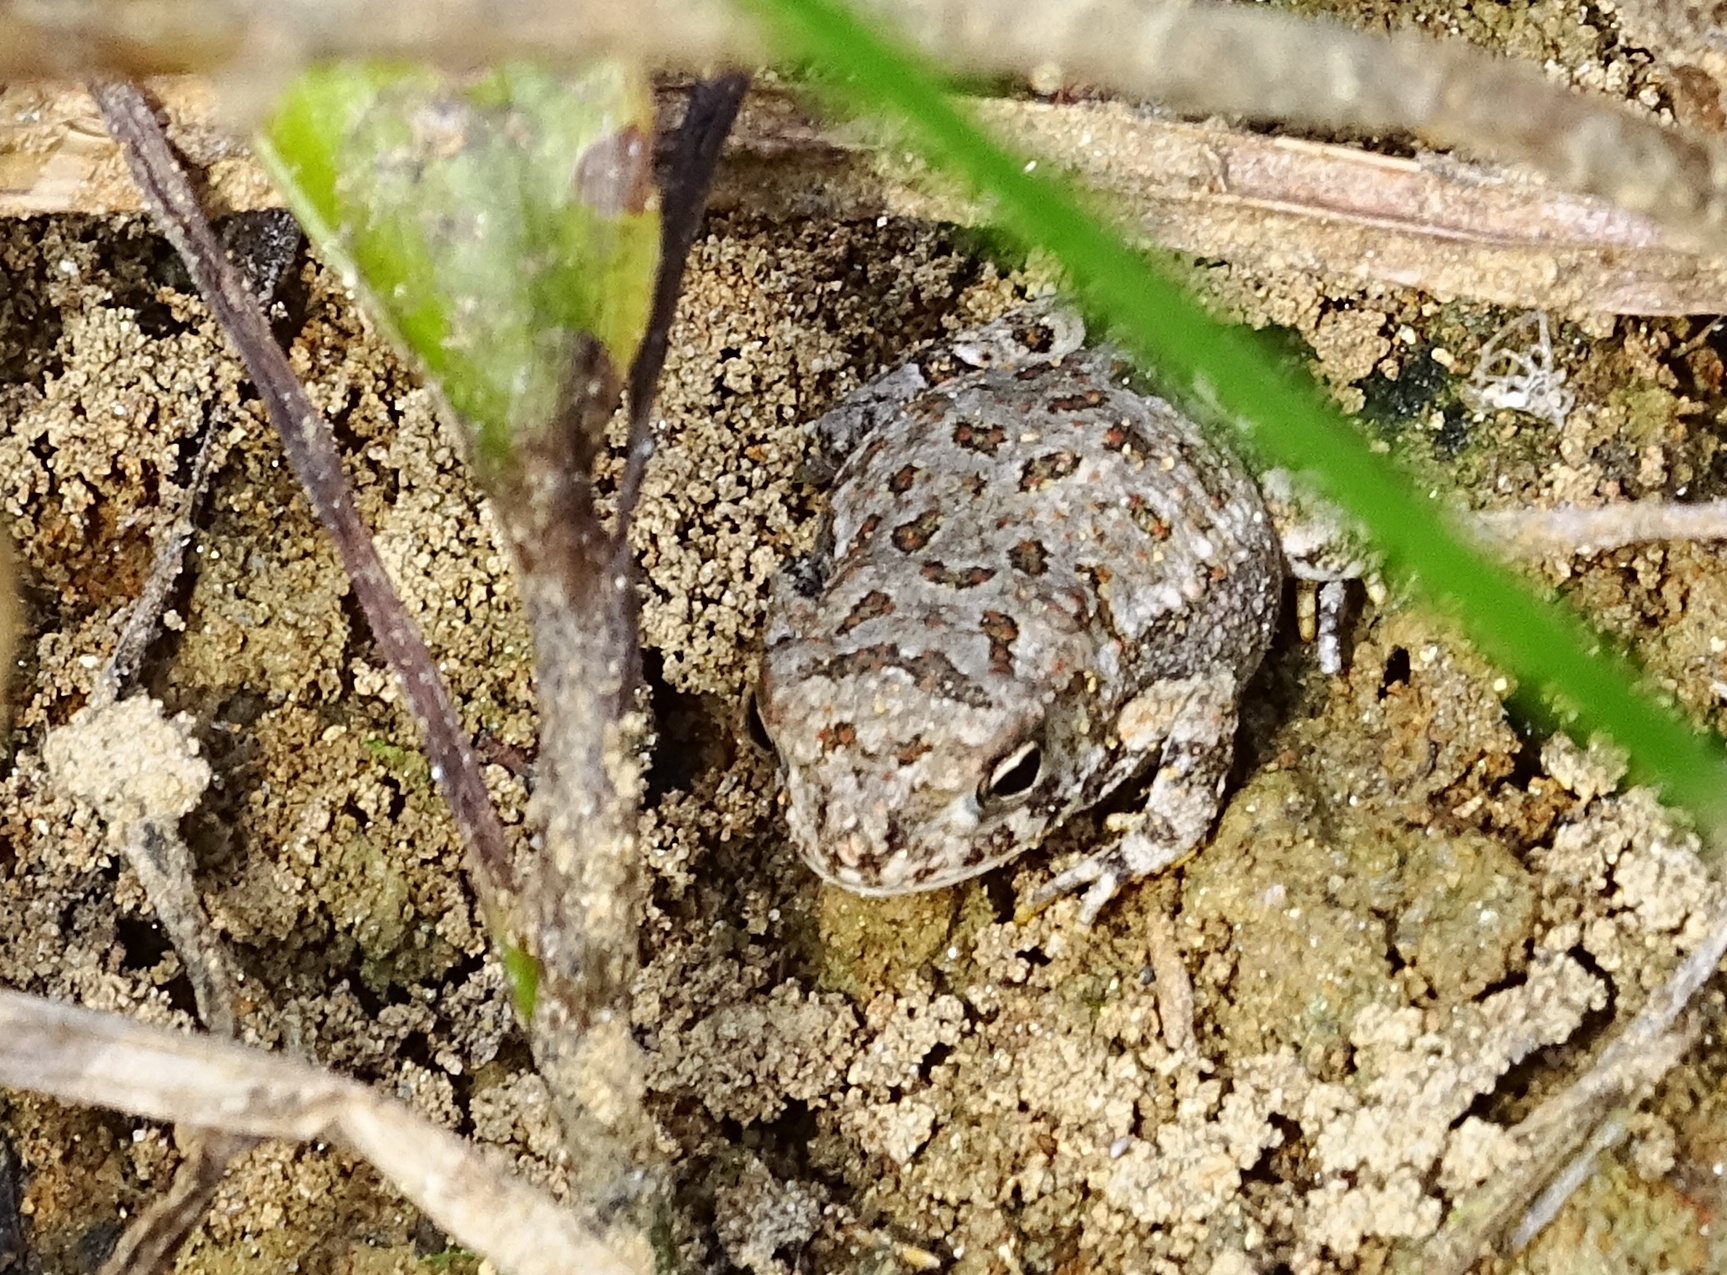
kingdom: Animalia
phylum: Chordata
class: Amphibia
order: Anura
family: Bufonidae
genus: Anaxyrus
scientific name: Anaxyrus
